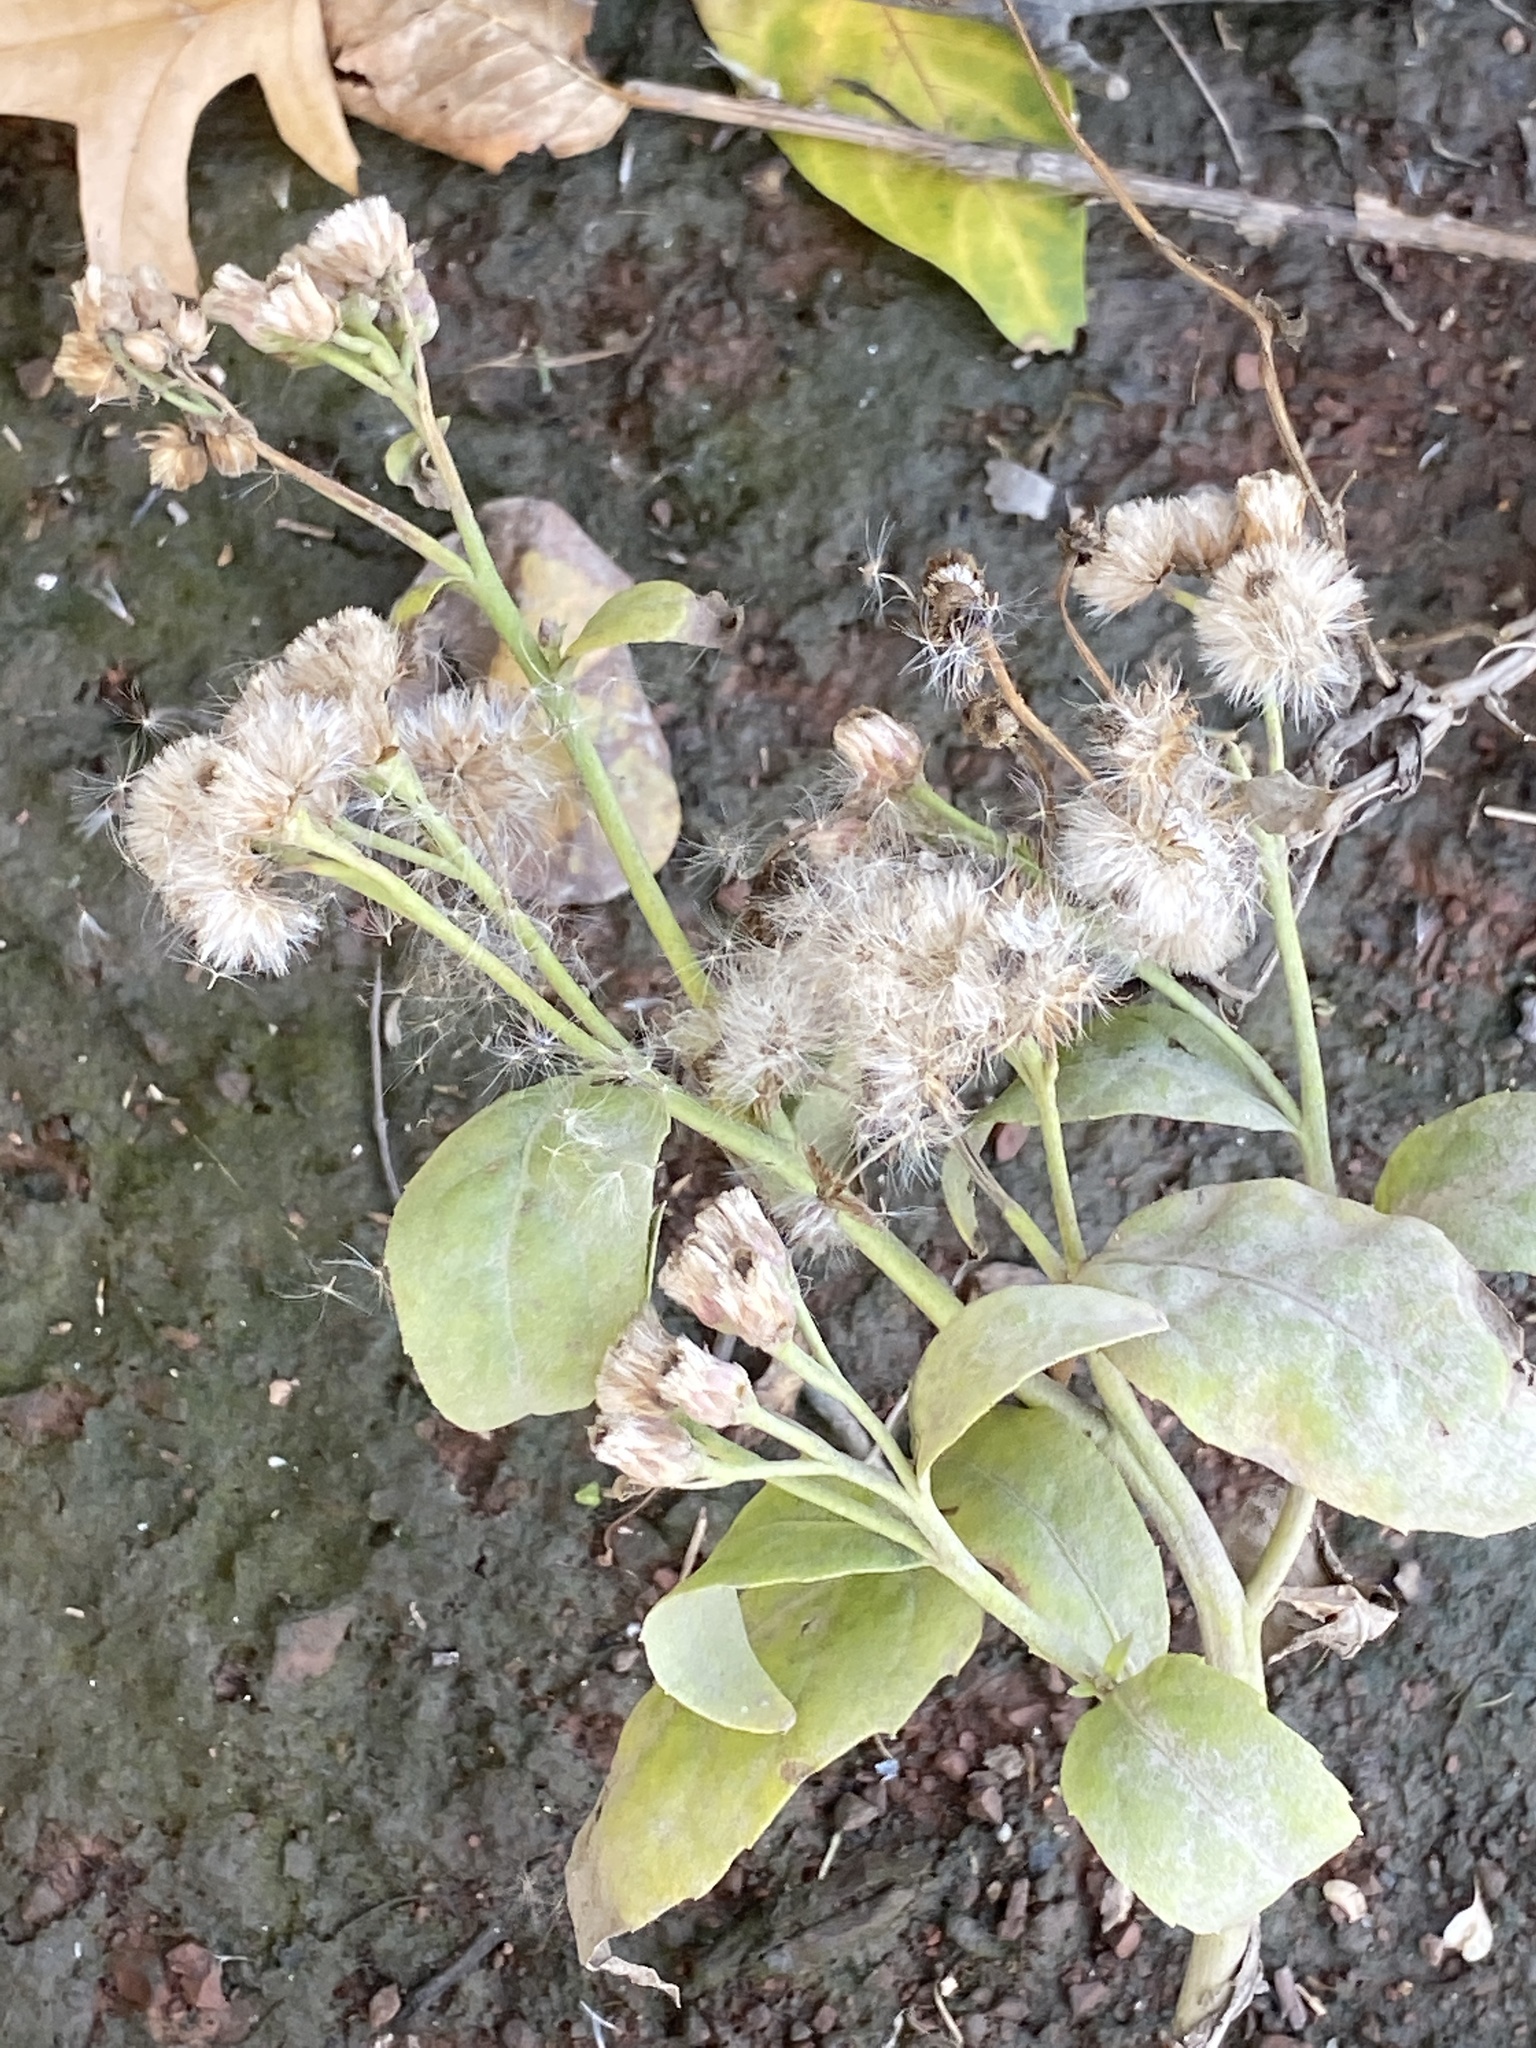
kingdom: Plantae
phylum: Tracheophyta
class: Magnoliopsida
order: Asterales
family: Asteraceae
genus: Pluchea
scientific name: Pluchea odorata
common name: Saltmarsh fleabane
